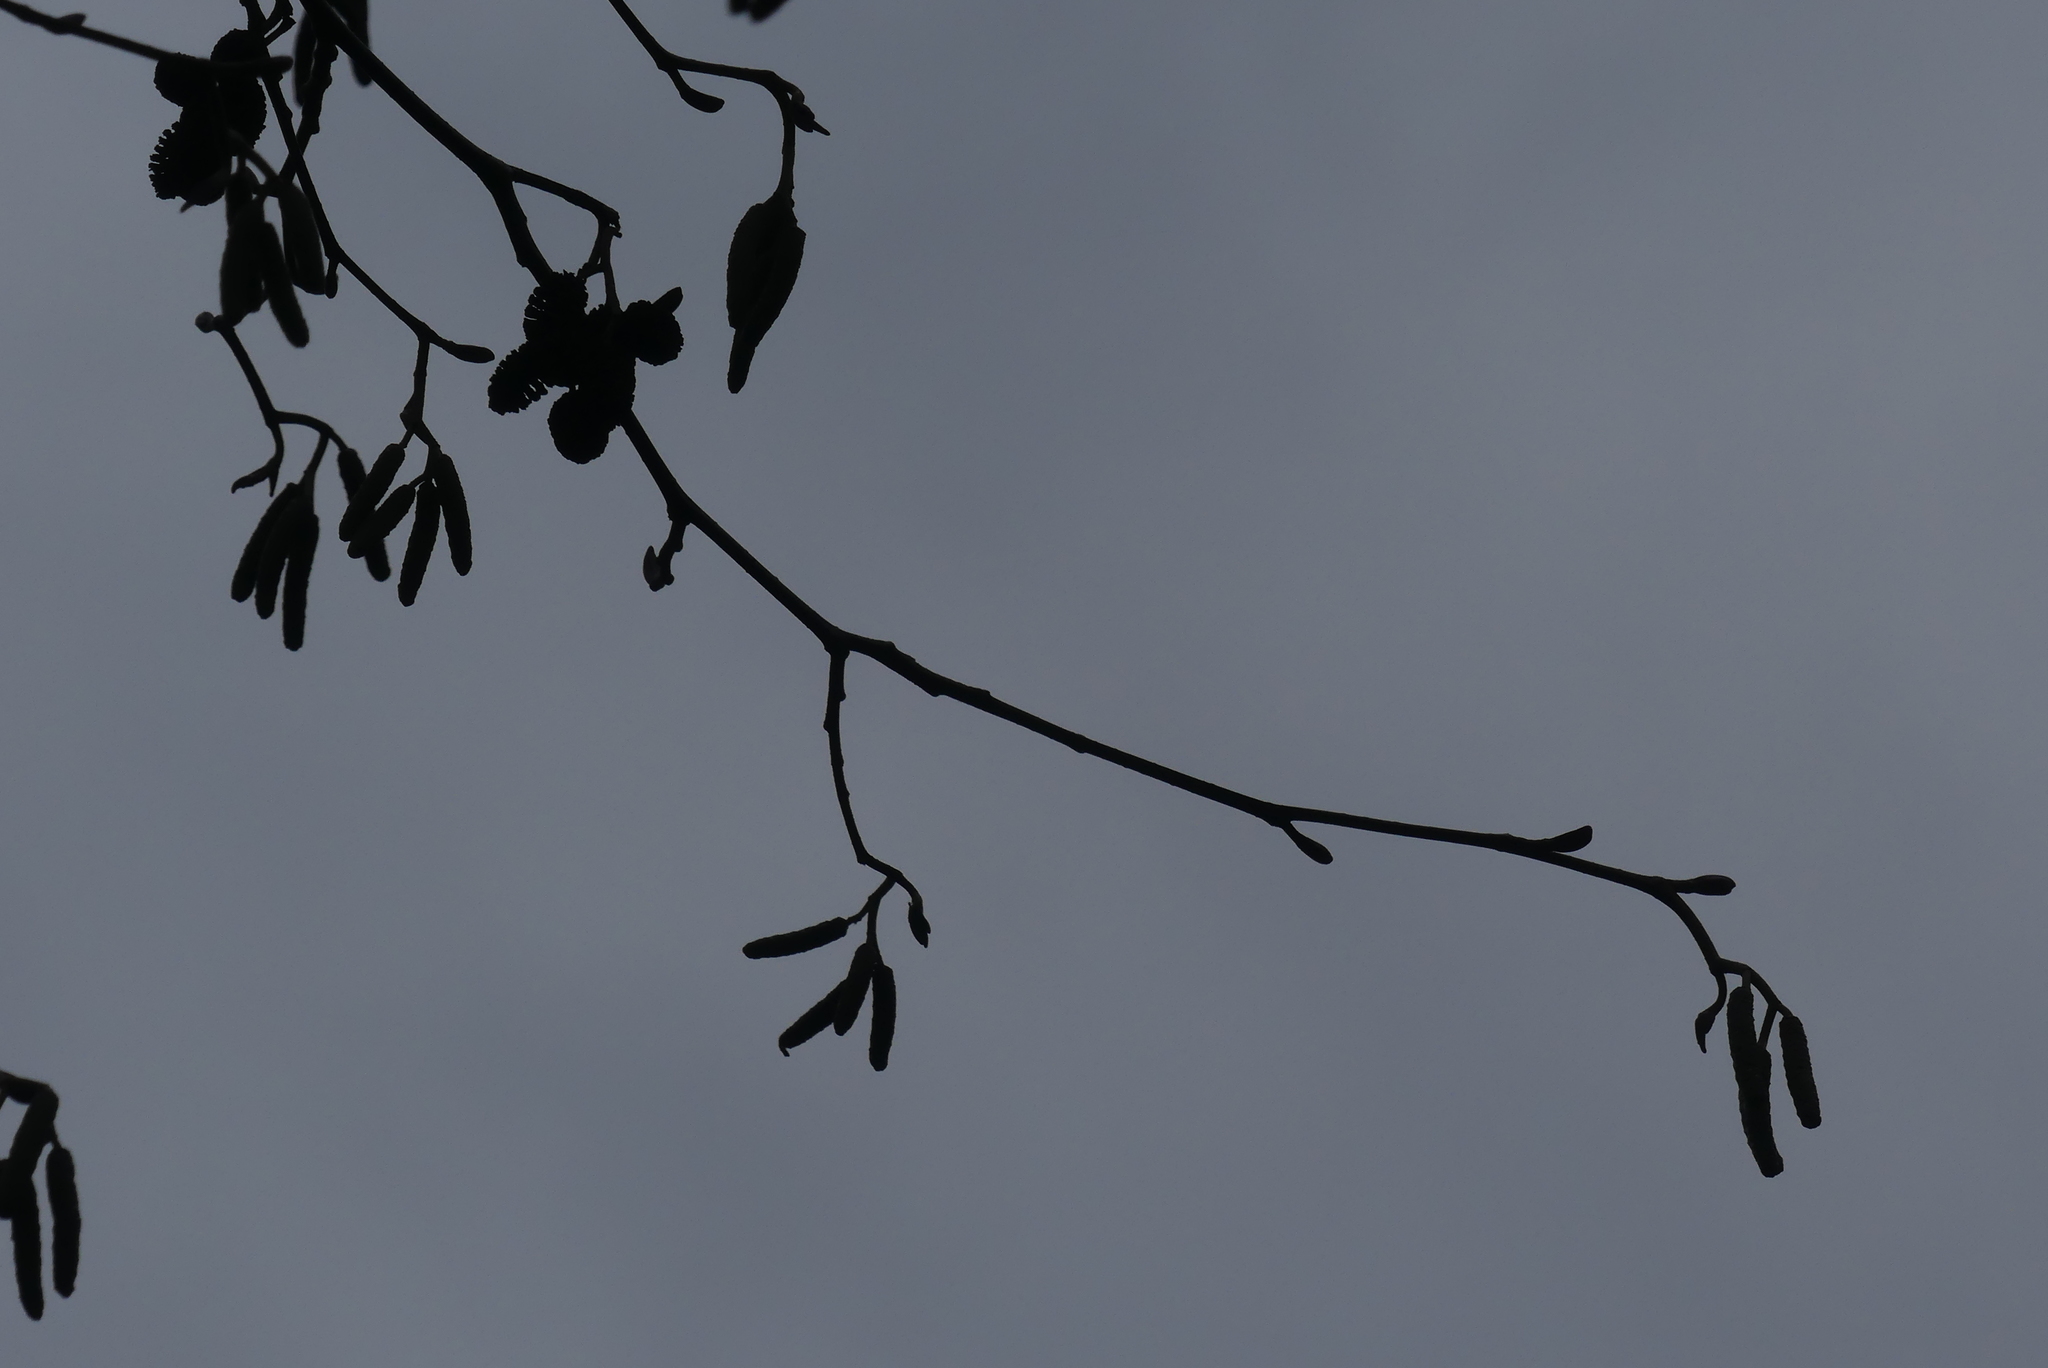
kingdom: Plantae
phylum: Tracheophyta
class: Magnoliopsida
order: Fagales
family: Betulaceae
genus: Alnus
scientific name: Alnus rubra
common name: Red alder
